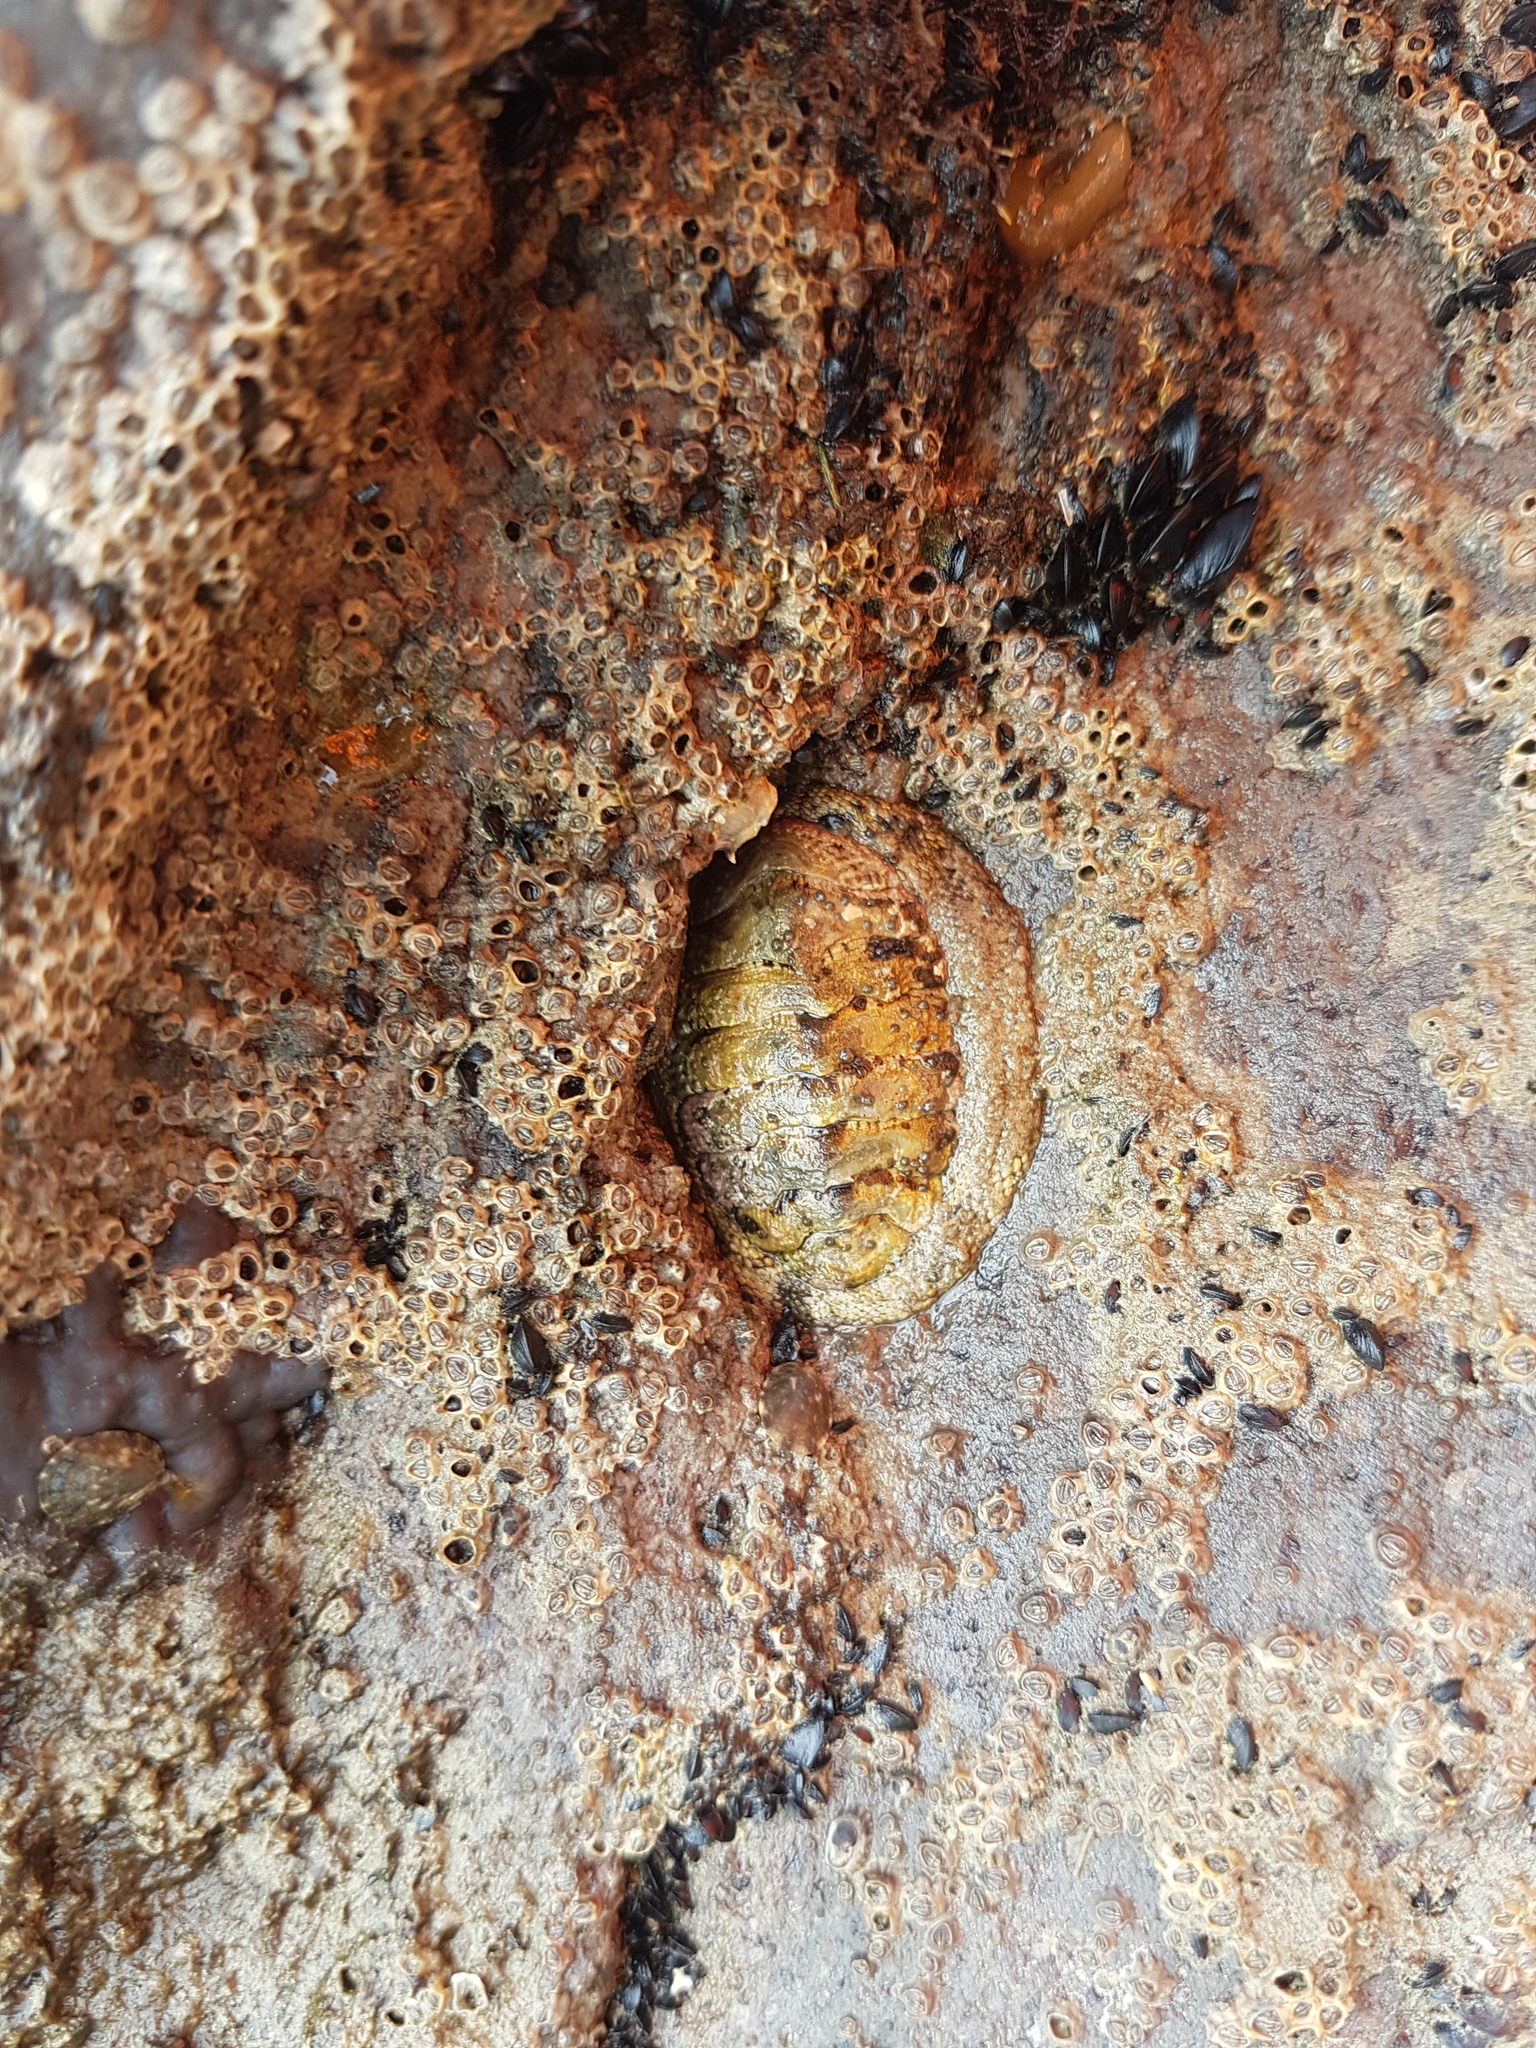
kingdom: Animalia
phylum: Mollusca
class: Polyplacophora
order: Chitonida
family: Chitonidae
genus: Sypharochiton
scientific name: Sypharochiton pelliserpentis
